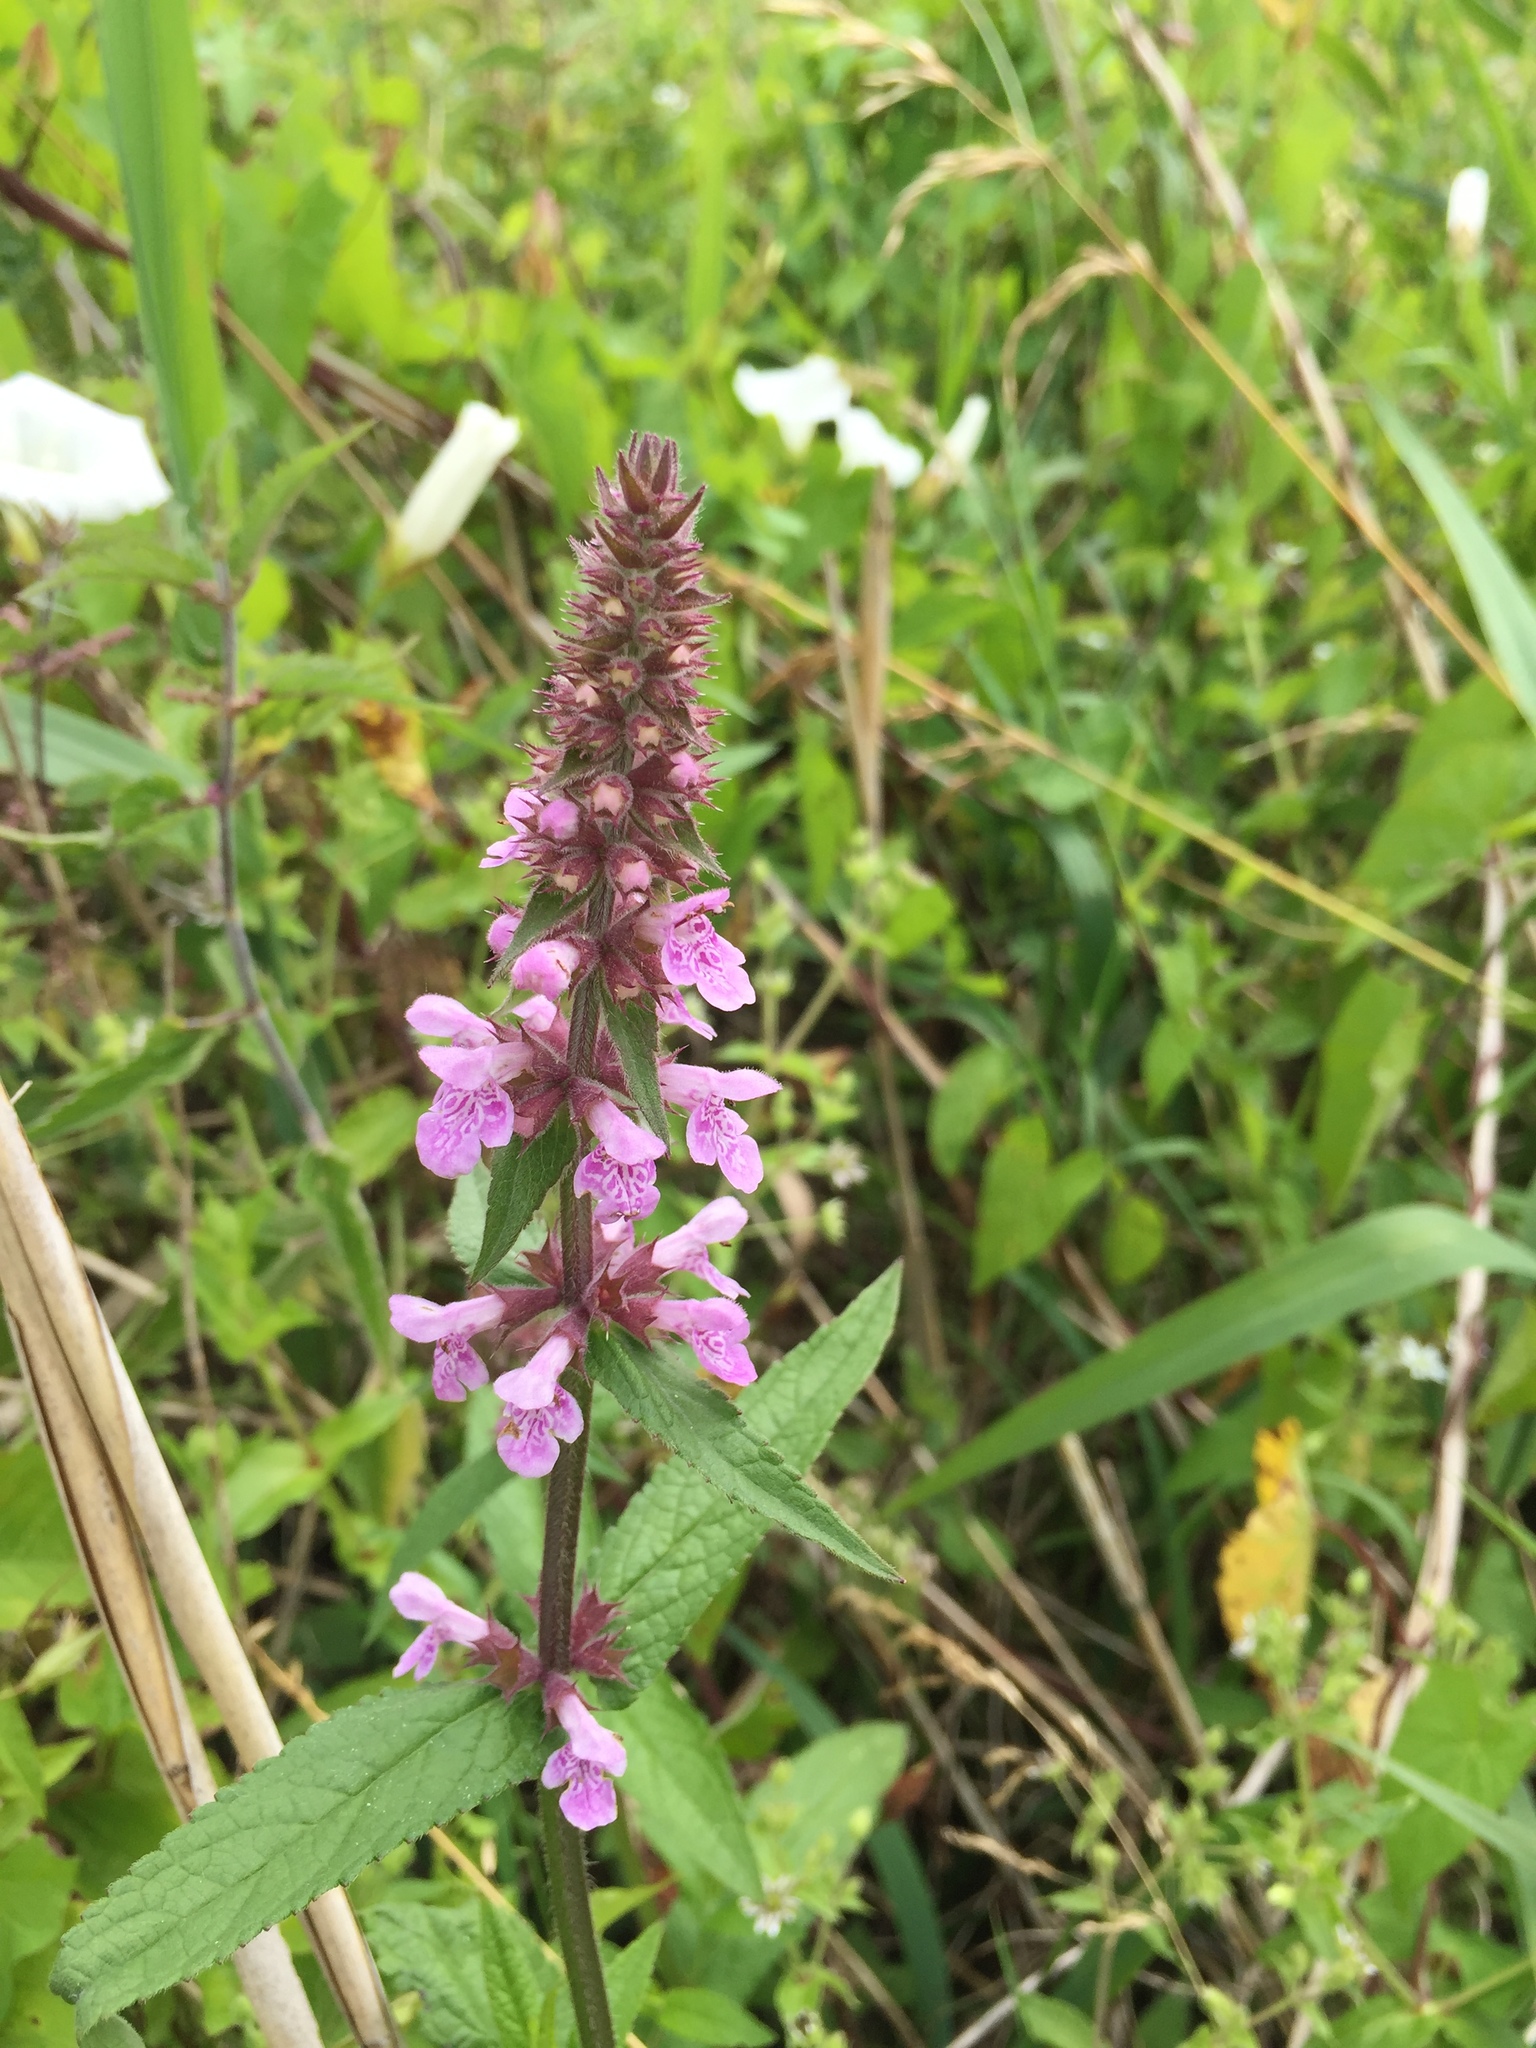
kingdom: Plantae
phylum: Tracheophyta
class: Magnoliopsida
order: Lamiales
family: Lamiaceae
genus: Stachys
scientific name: Stachys palustris
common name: Marsh woundwort
